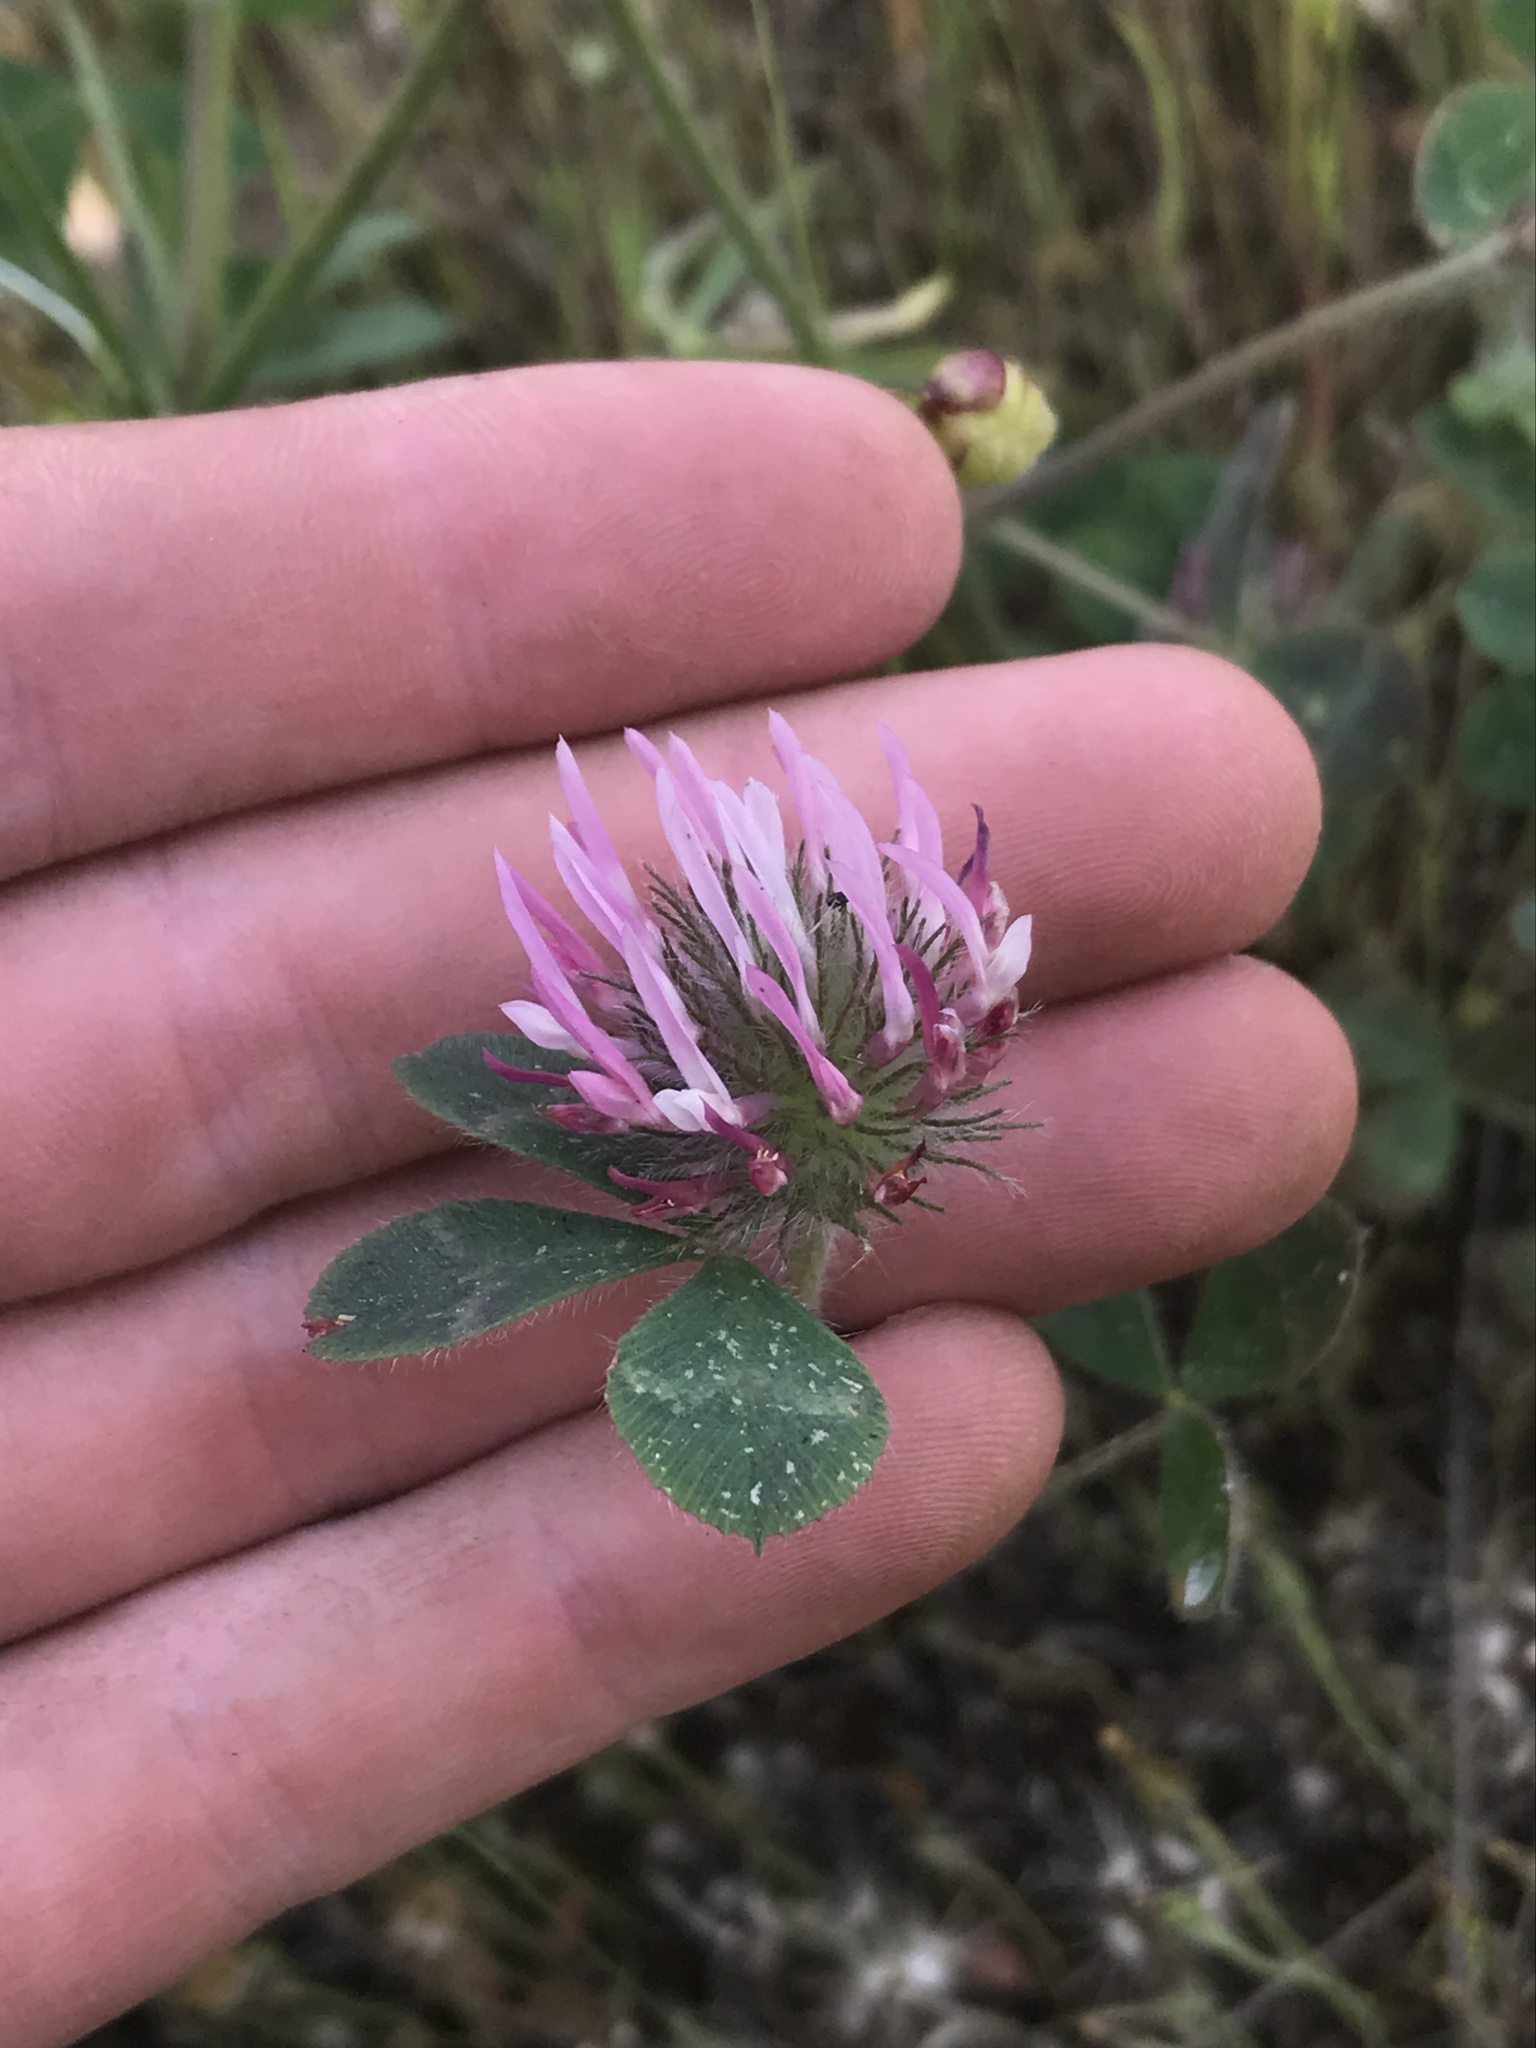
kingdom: Plantae
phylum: Tracheophyta
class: Magnoliopsida
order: Fabales
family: Fabaceae
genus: Trifolium
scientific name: Trifolium hirtum
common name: Rose clover
